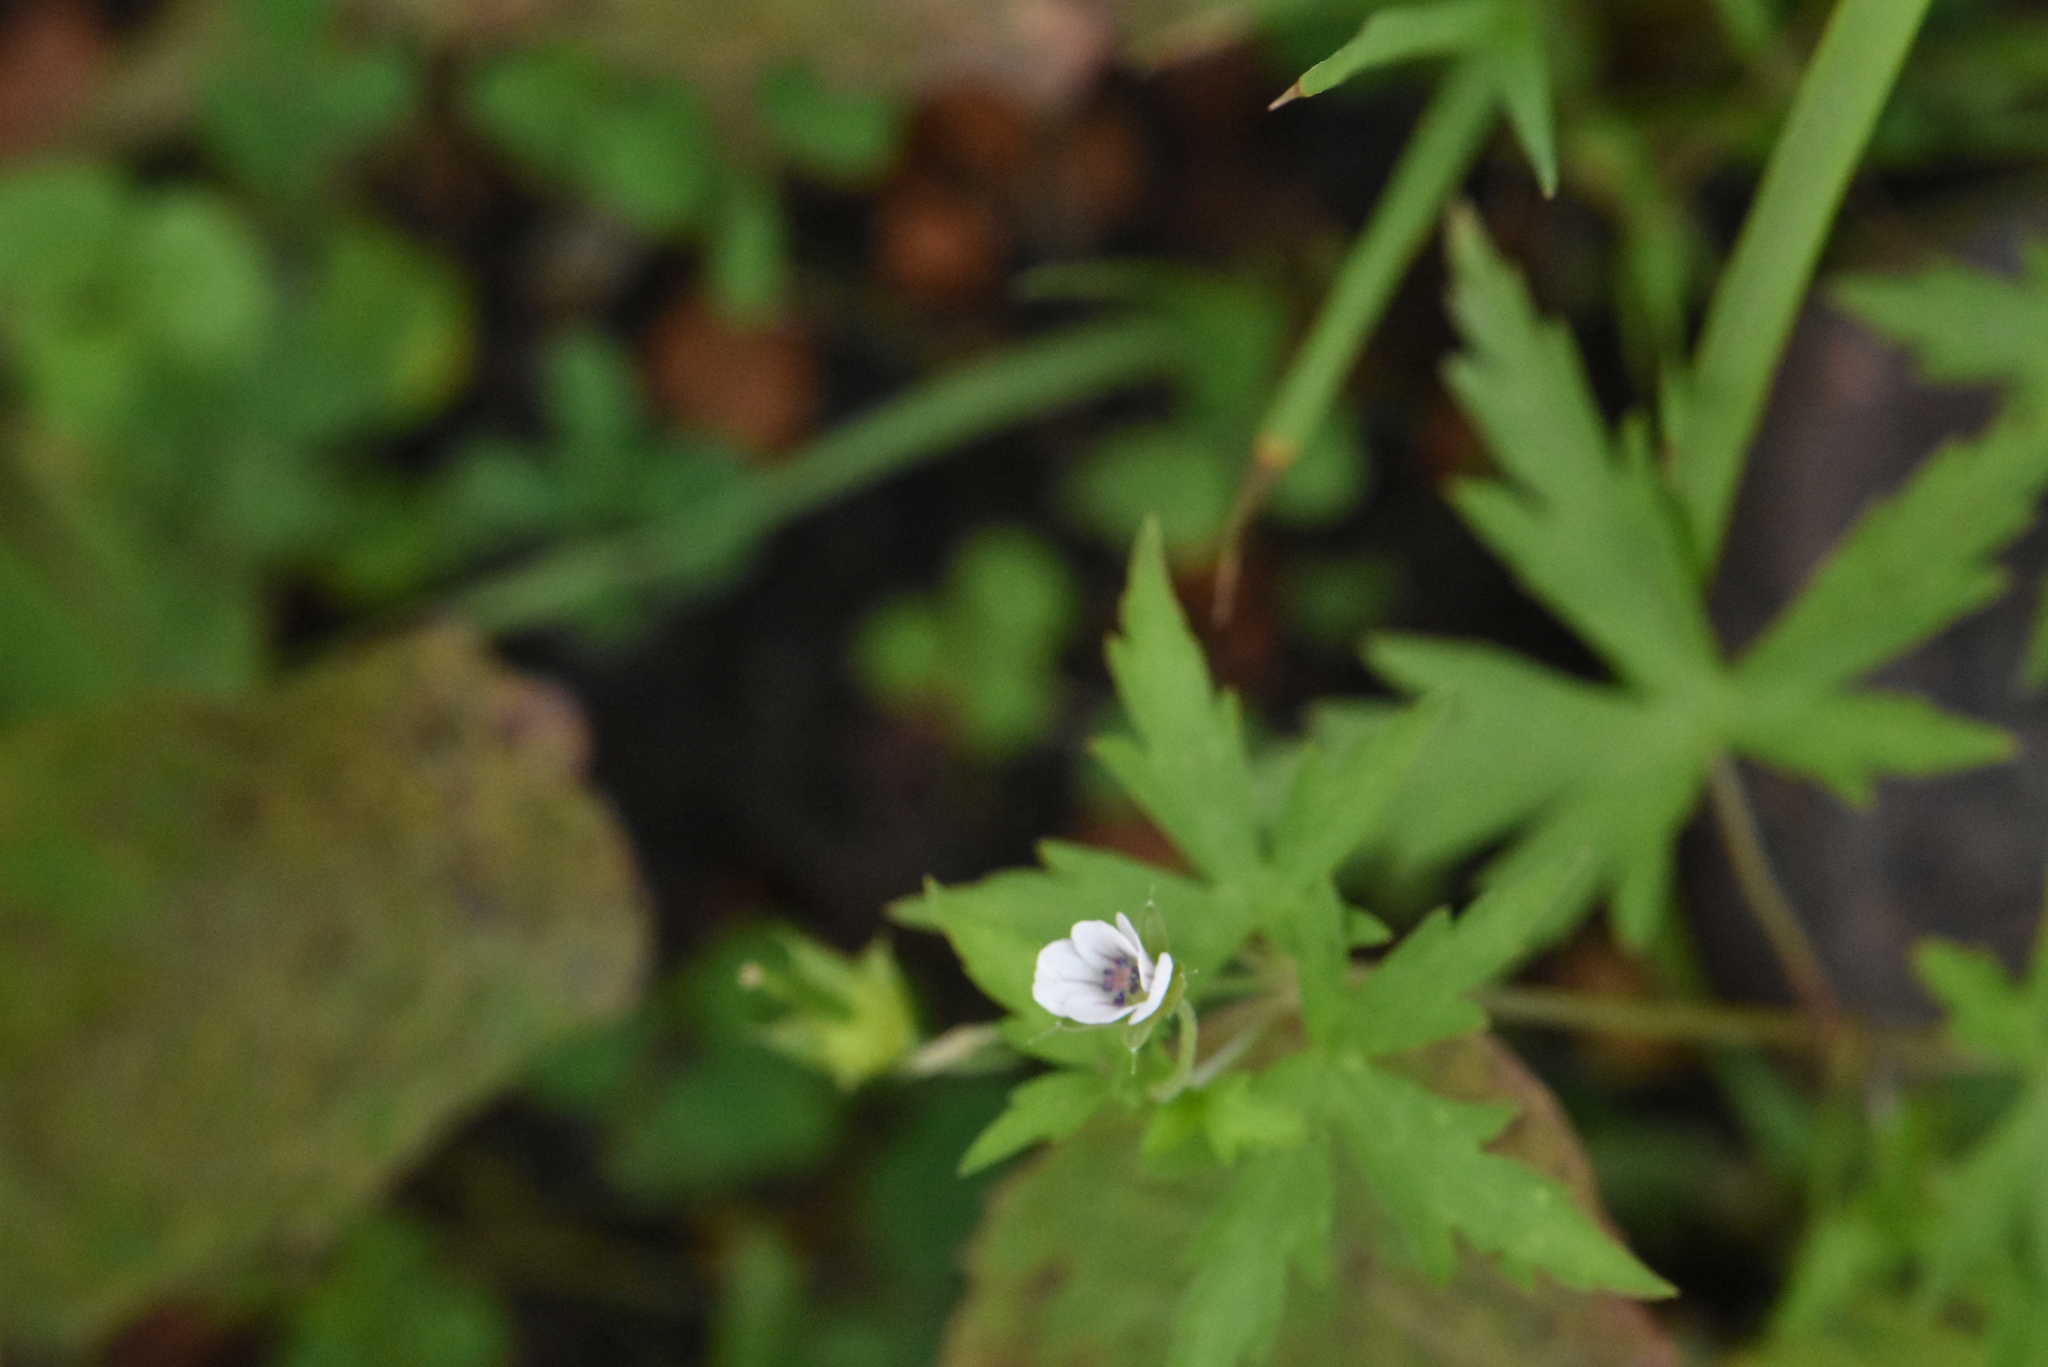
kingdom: Plantae
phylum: Tracheophyta
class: Magnoliopsida
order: Geraniales
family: Geraniaceae
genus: Geranium
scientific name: Geranium sibiricum
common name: Siberian crane's-bill
